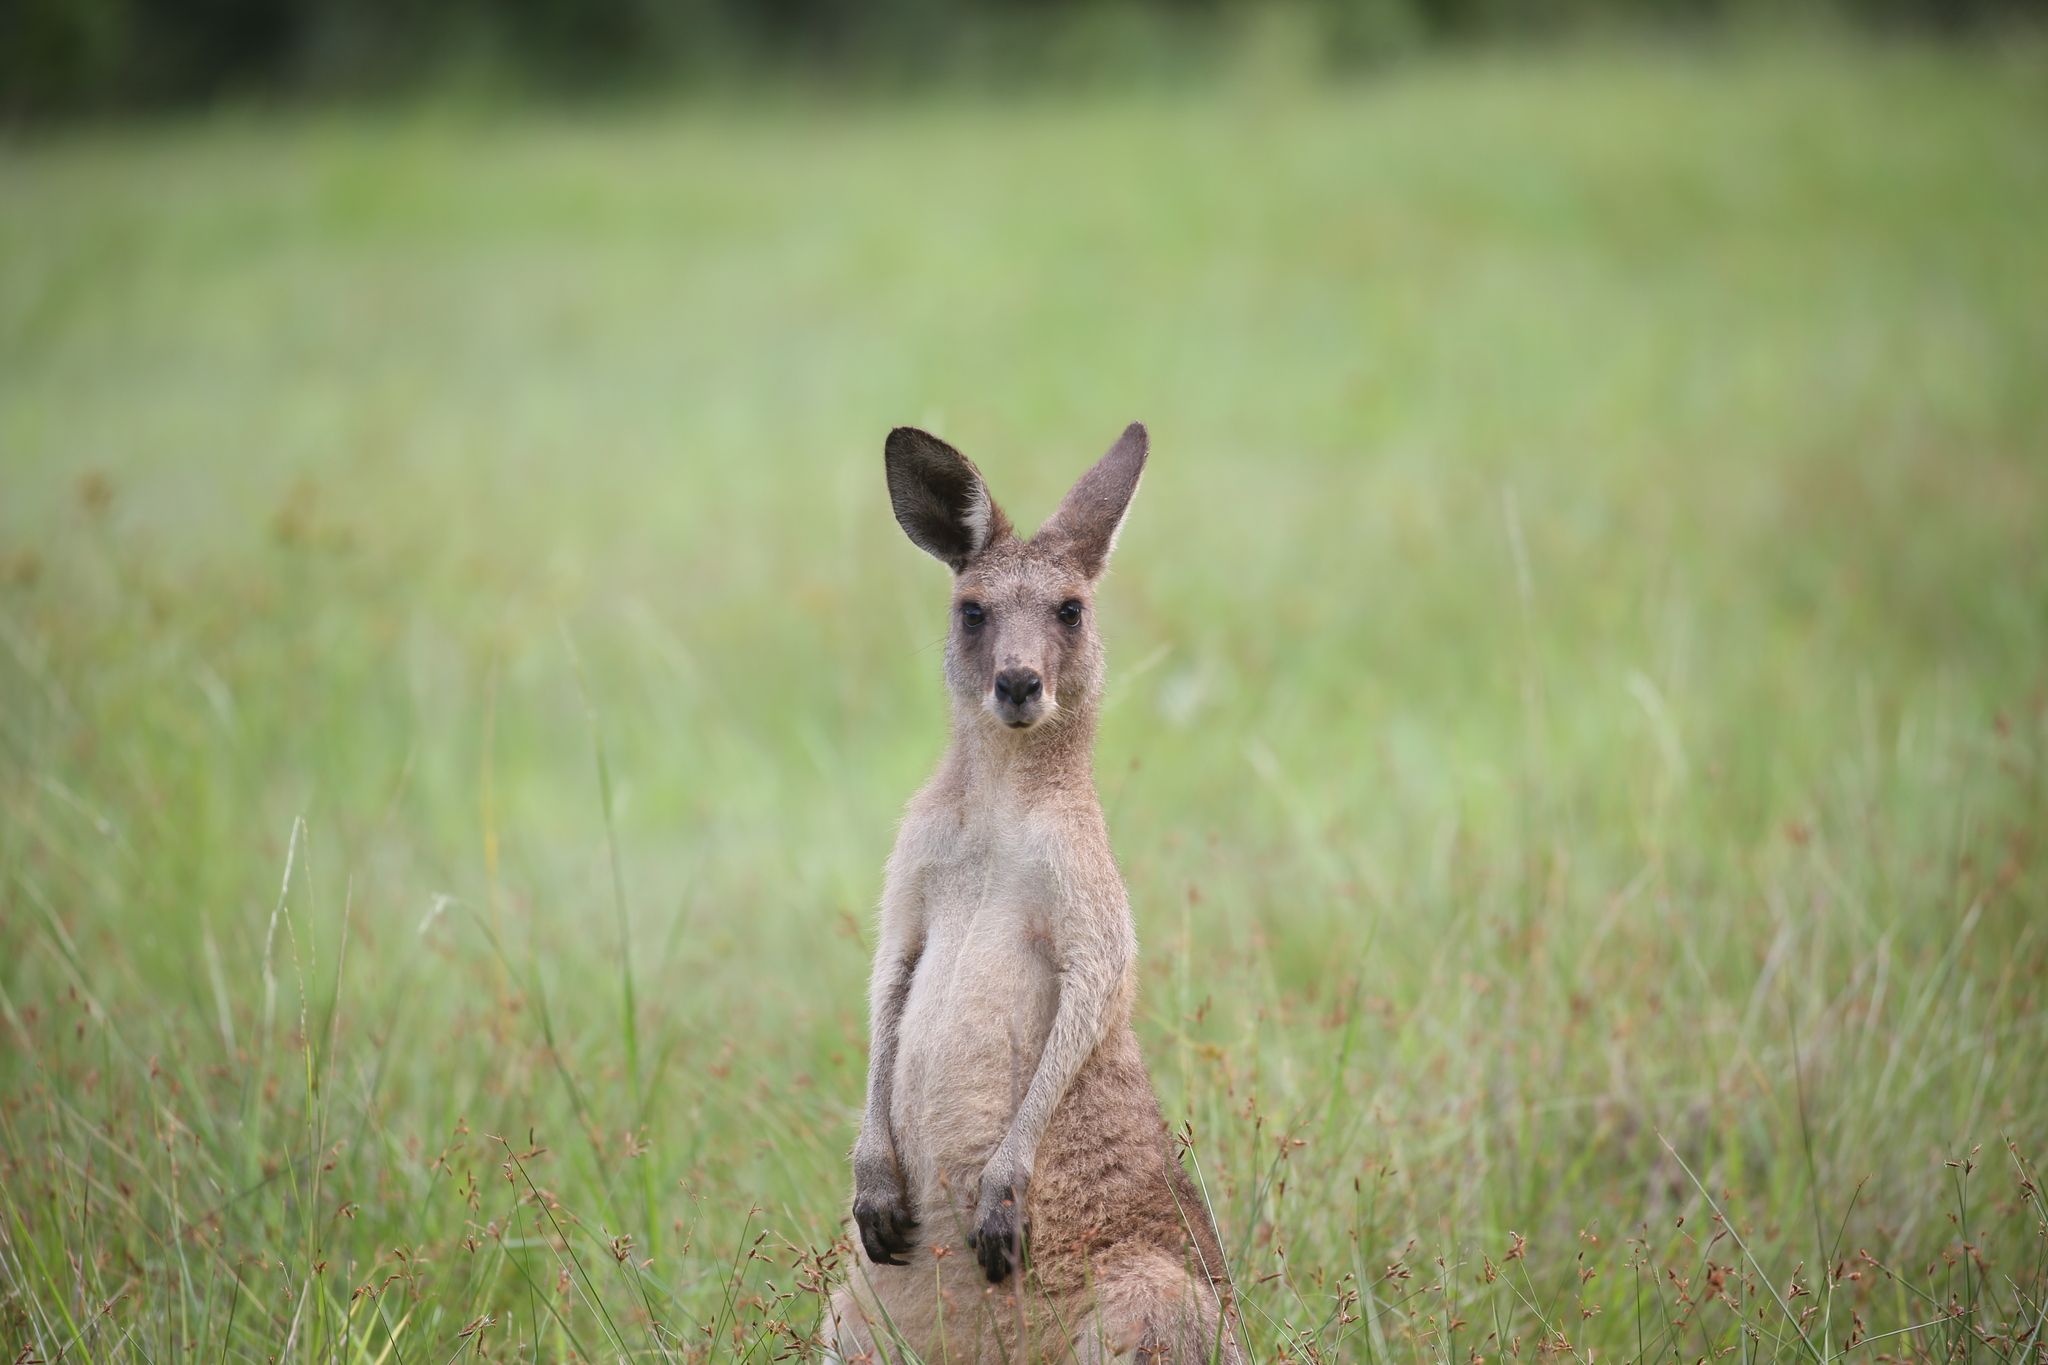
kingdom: Animalia
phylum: Chordata
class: Mammalia
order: Diprotodontia
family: Macropodidae
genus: Macropus
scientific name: Macropus giganteus
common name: Eastern grey kangaroo
